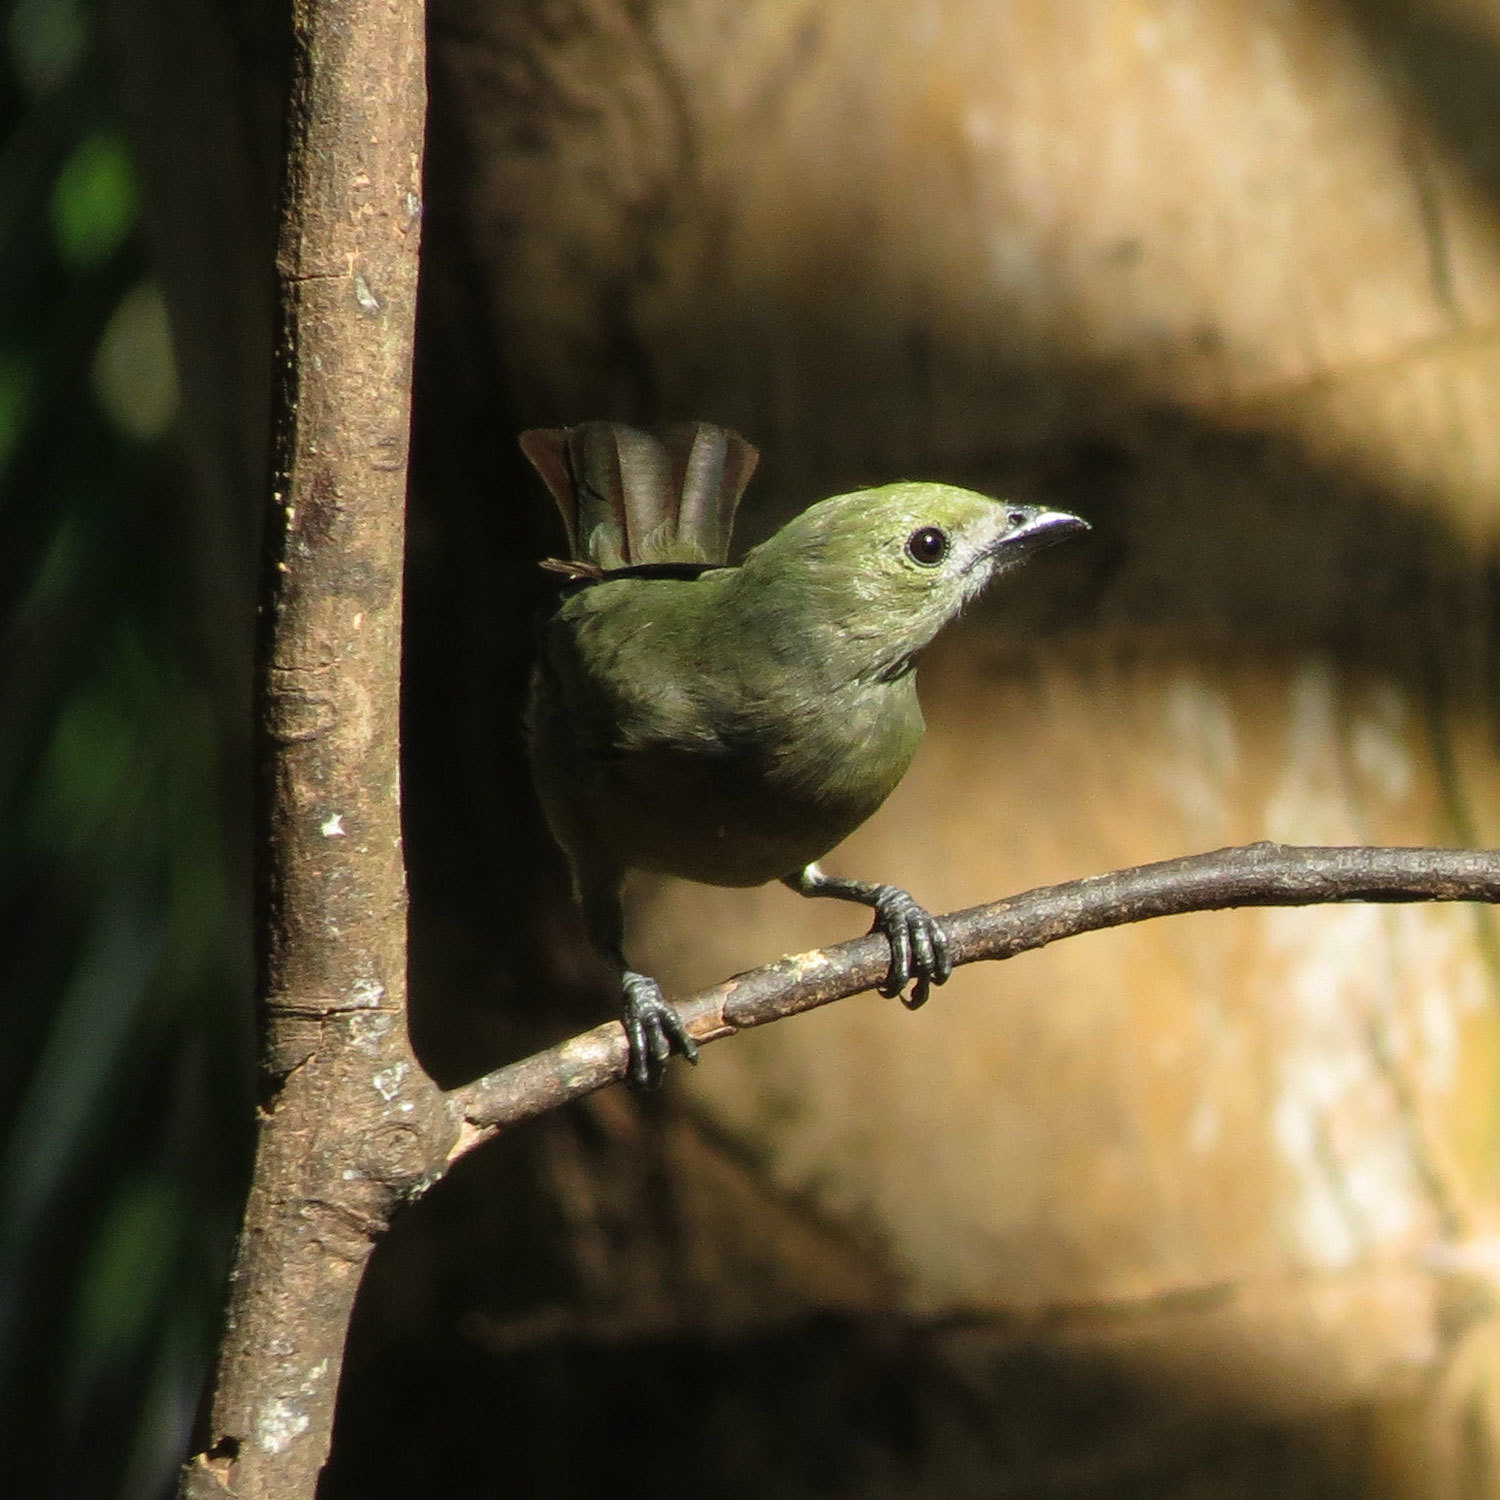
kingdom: Animalia
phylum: Chordata
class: Aves
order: Passeriformes
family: Thraupidae
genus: Thraupis
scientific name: Thraupis palmarum
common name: Palm tanager
